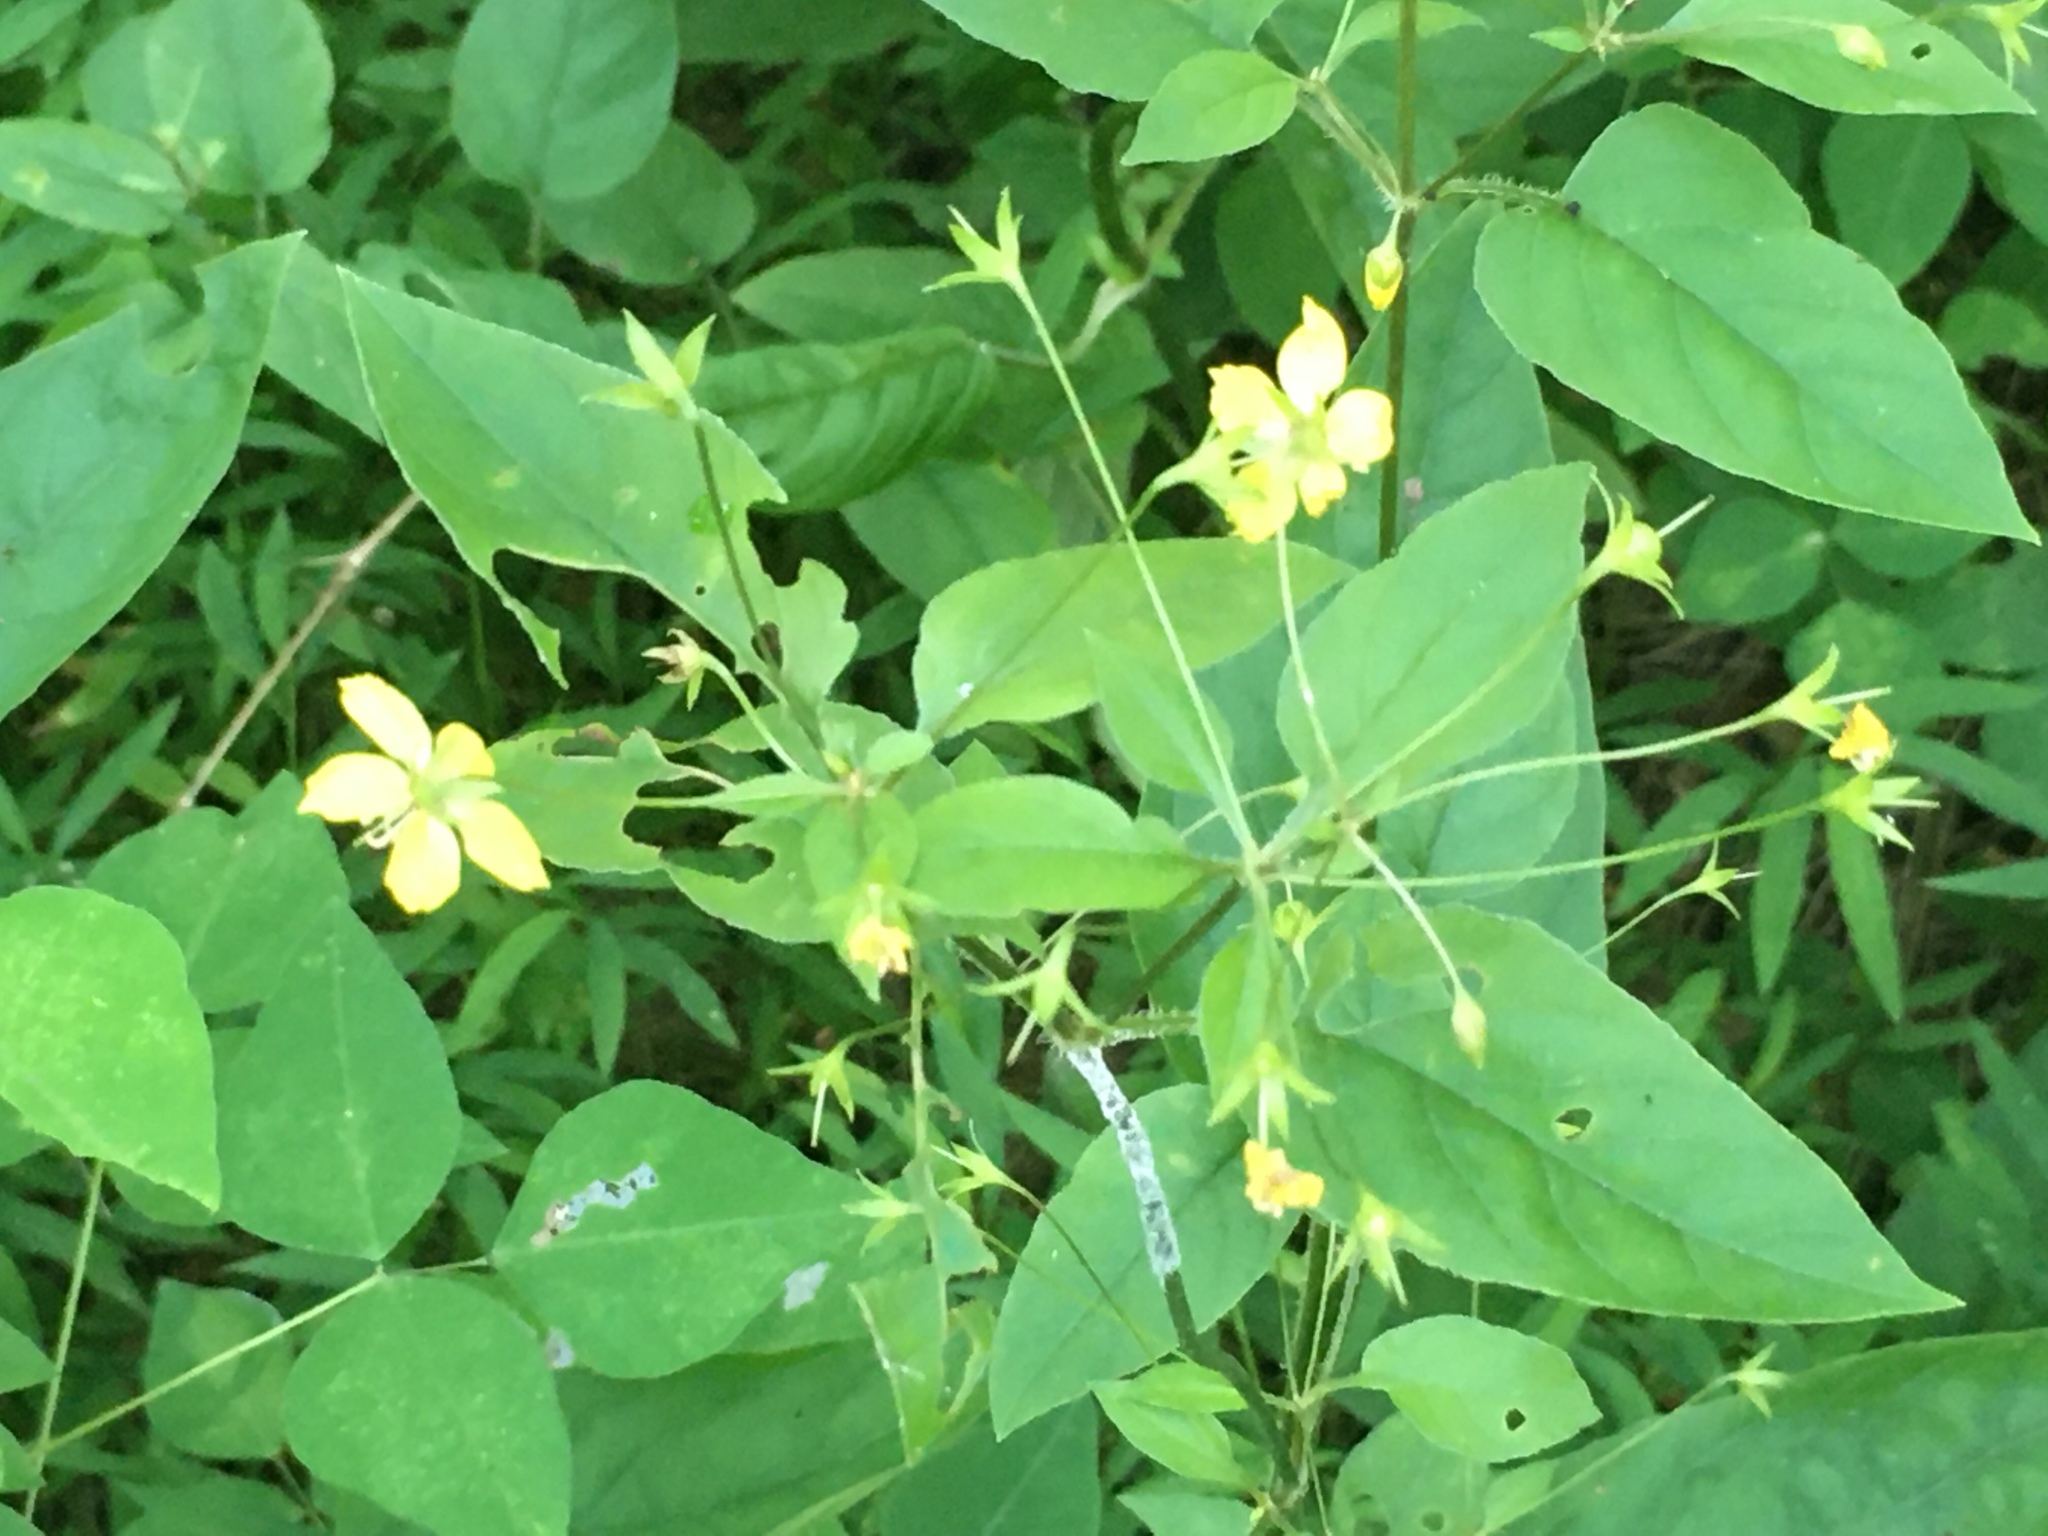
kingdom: Plantae
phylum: Tracheophyta
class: Magnoliopsida
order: Ericales
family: Primulaceae
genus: Lysimachia
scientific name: Lysimachia ciliata
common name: Fringed loosestrife
